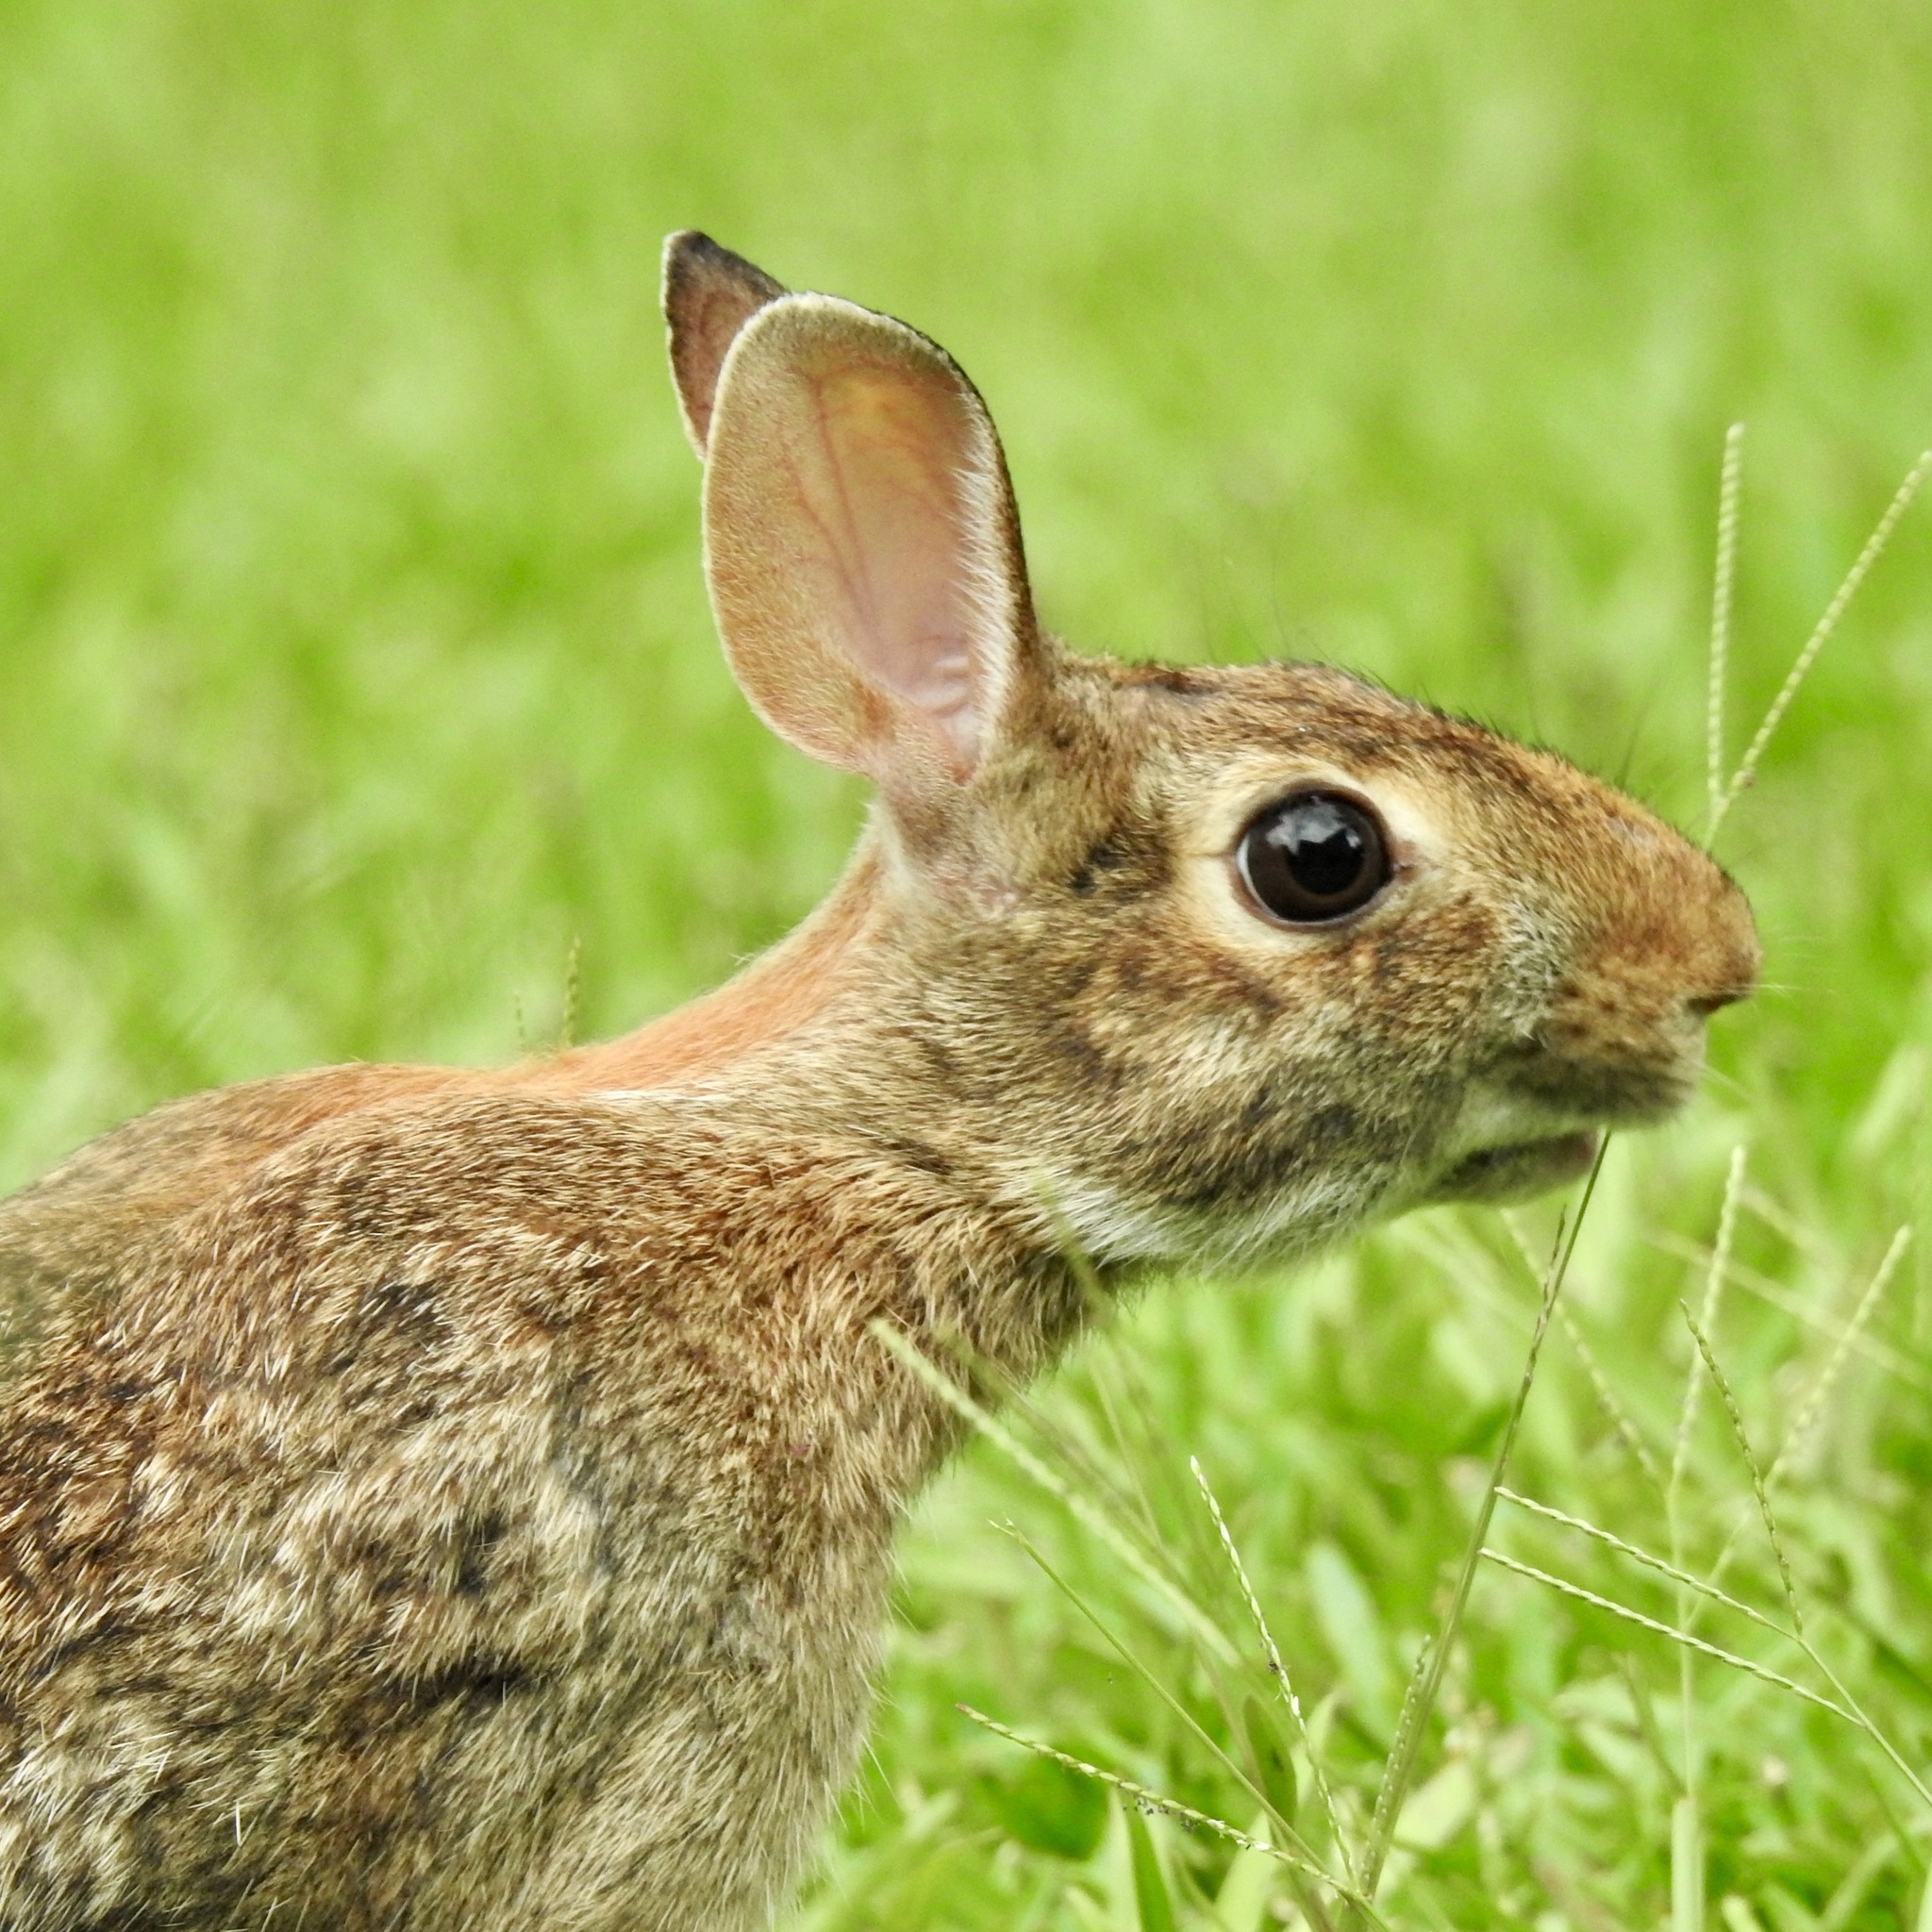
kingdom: Animalia
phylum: Chordata
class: Mammalia
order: Lagomorpha
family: Leporidae
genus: Sylvilagus
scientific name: Sylvilagus floridanus
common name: Eastern cottontail
